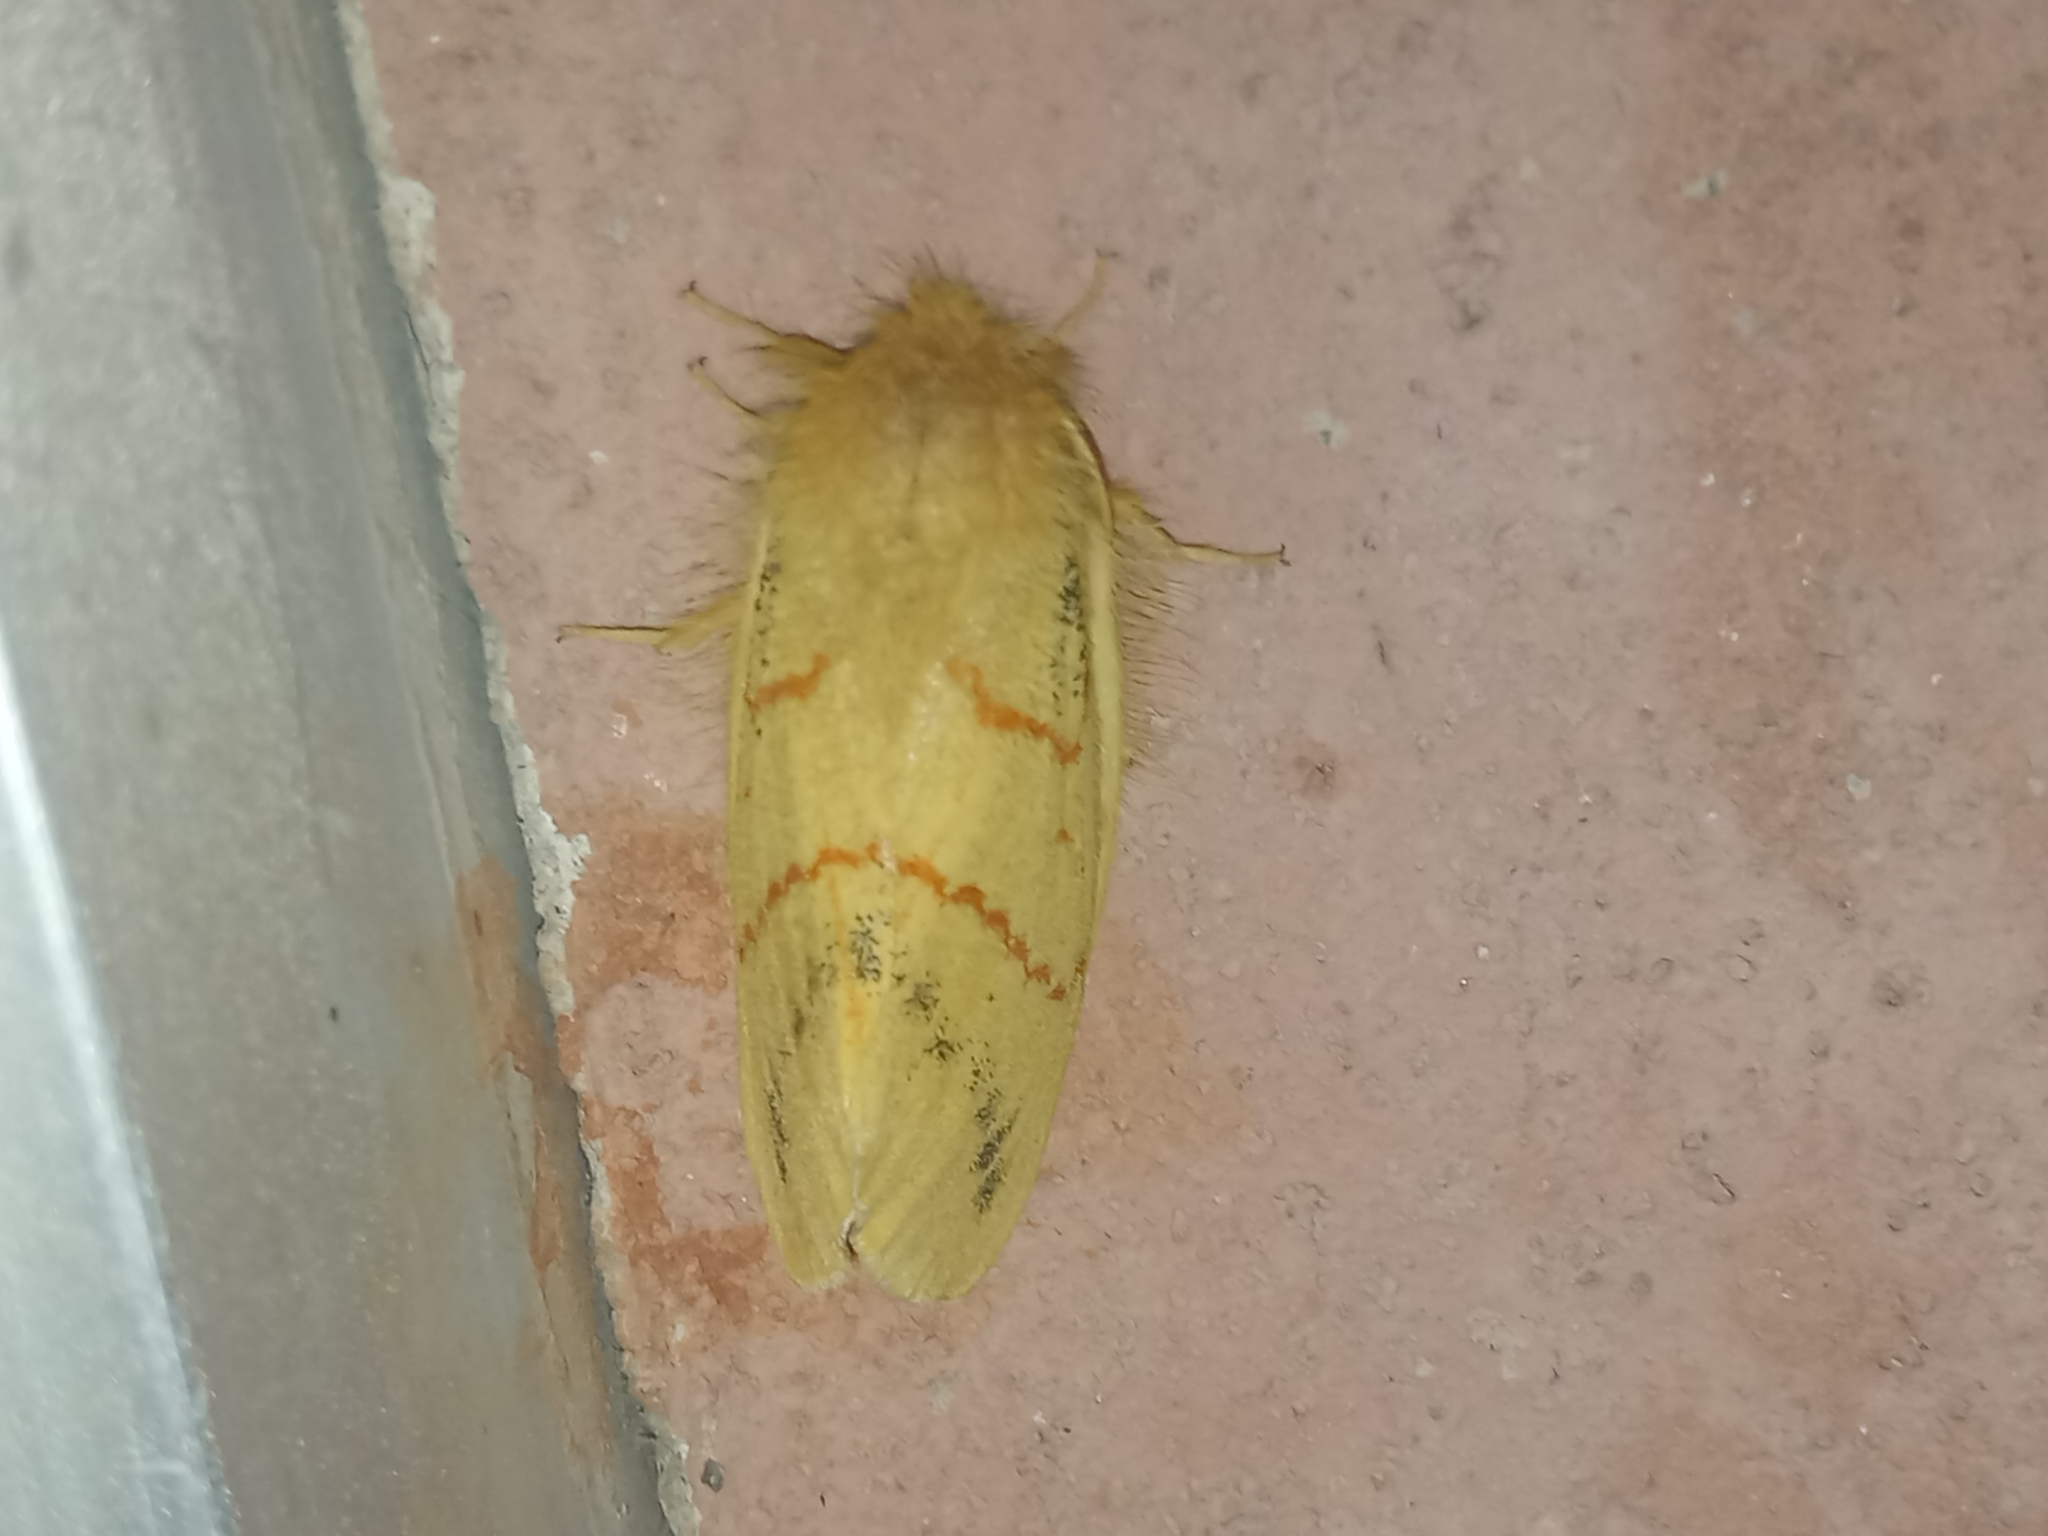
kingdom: Animalia
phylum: Arthropoda
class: Insecta
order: Lepidoptera
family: Lasiocampidae
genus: Chrysopsyche
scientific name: Chrysopsyche imparilis
